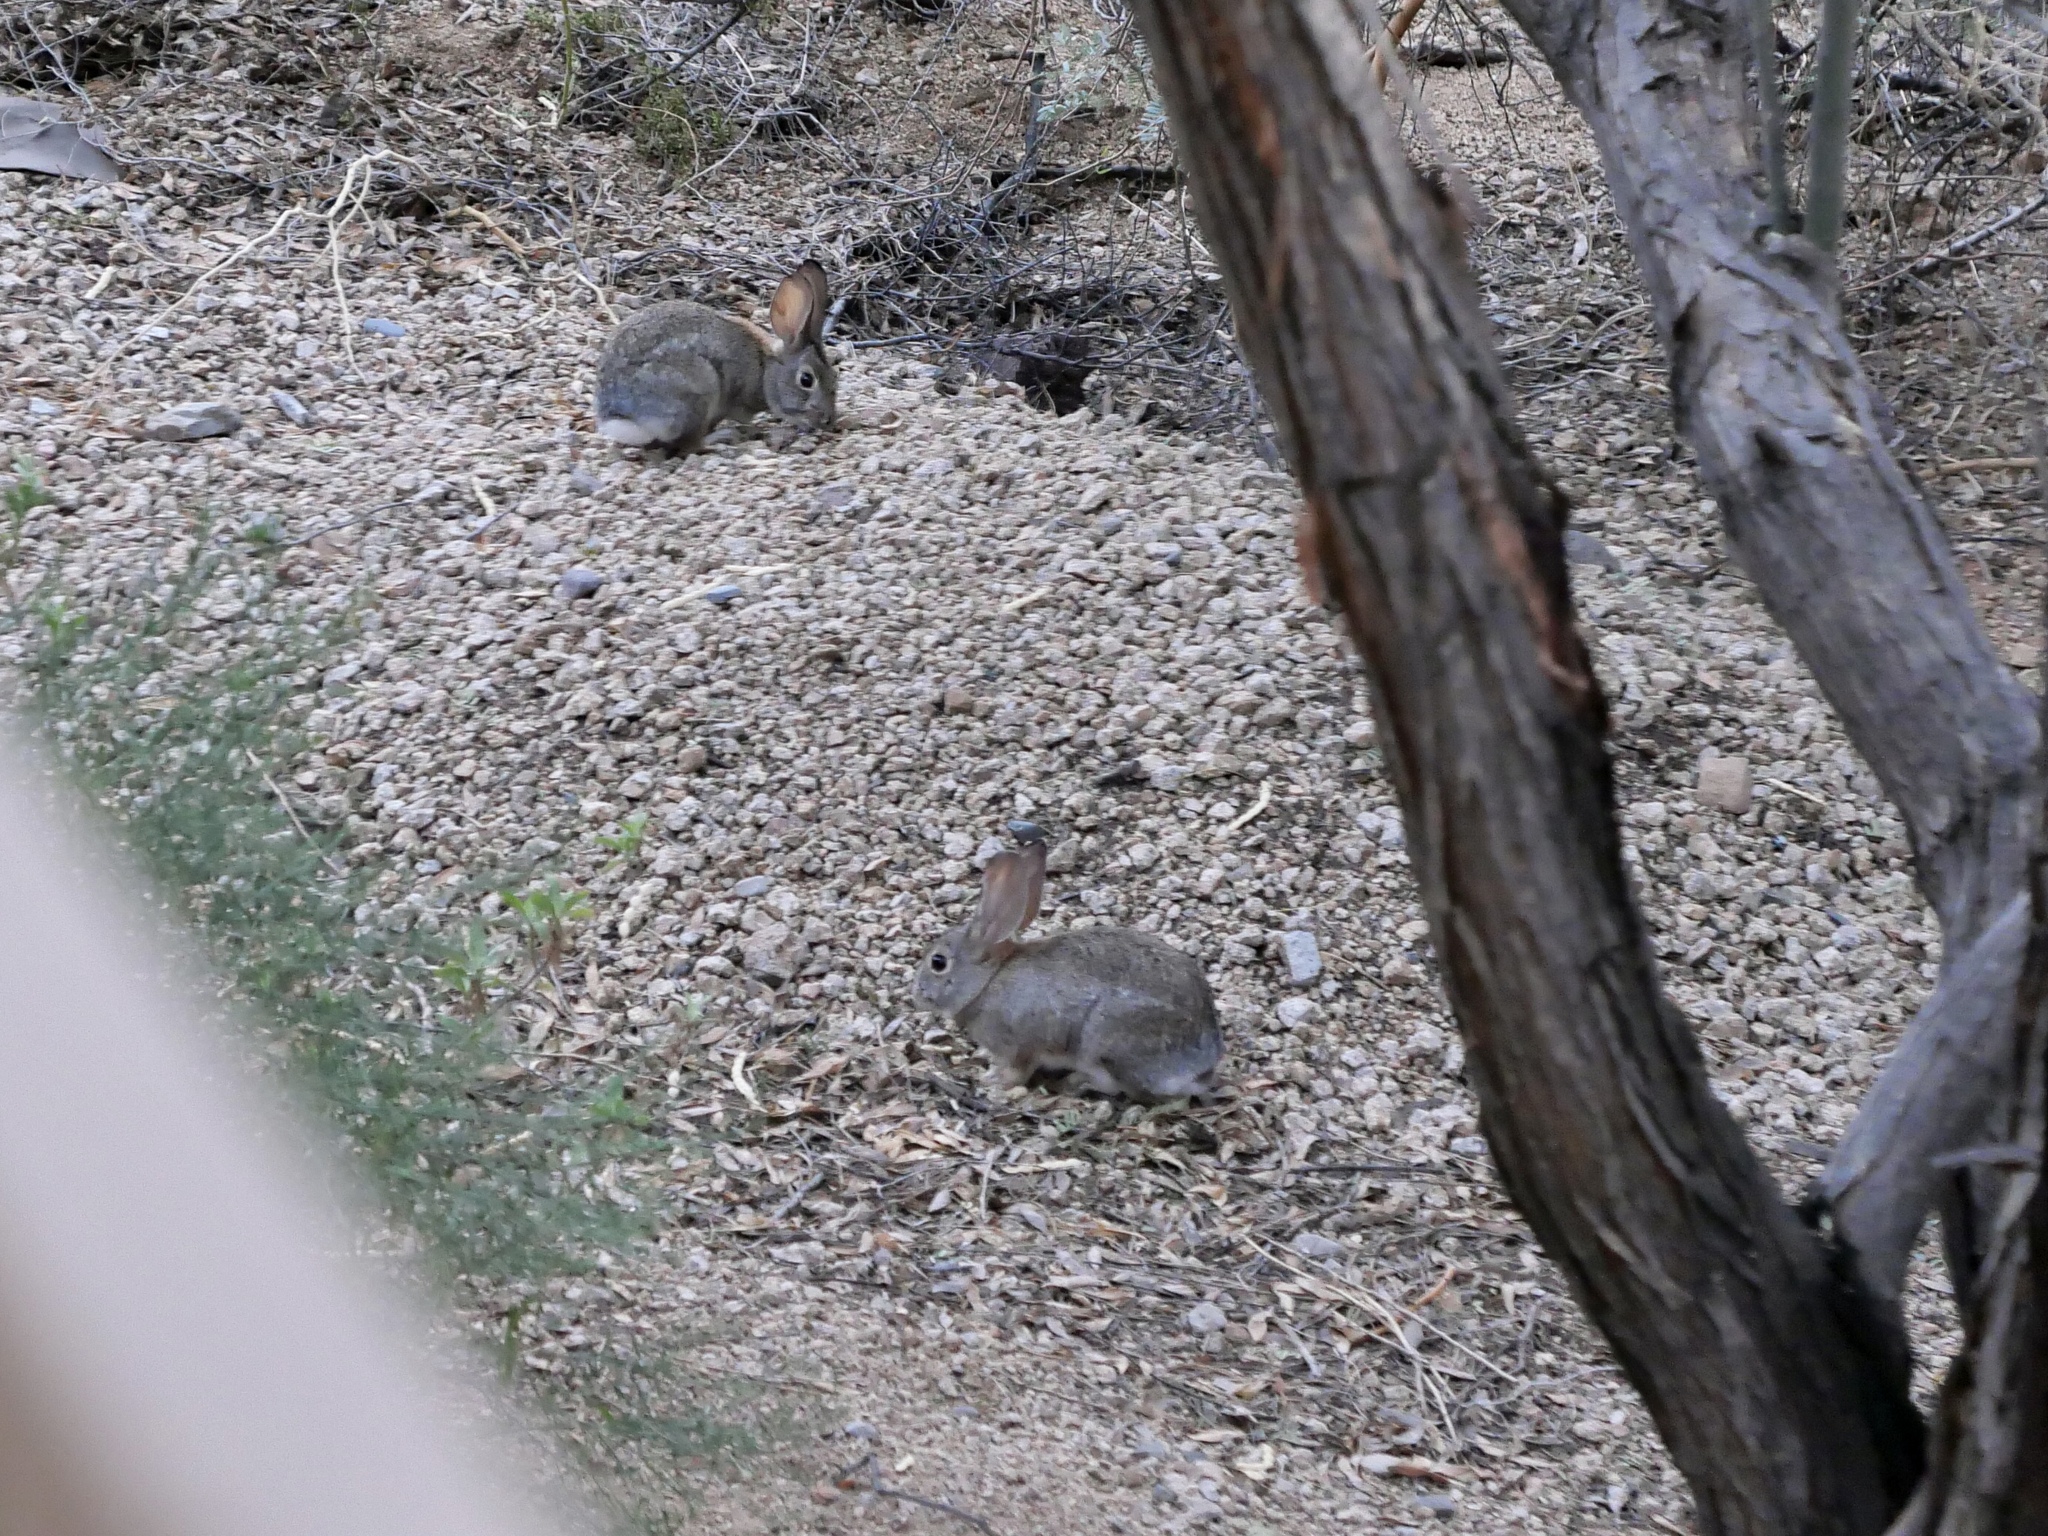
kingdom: Animalia
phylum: Chordata
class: Mammalia
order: Lagomorpha
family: Leporidae
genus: Sylvilagus
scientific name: Sylvilagus audubonii
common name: Desert cottontail
